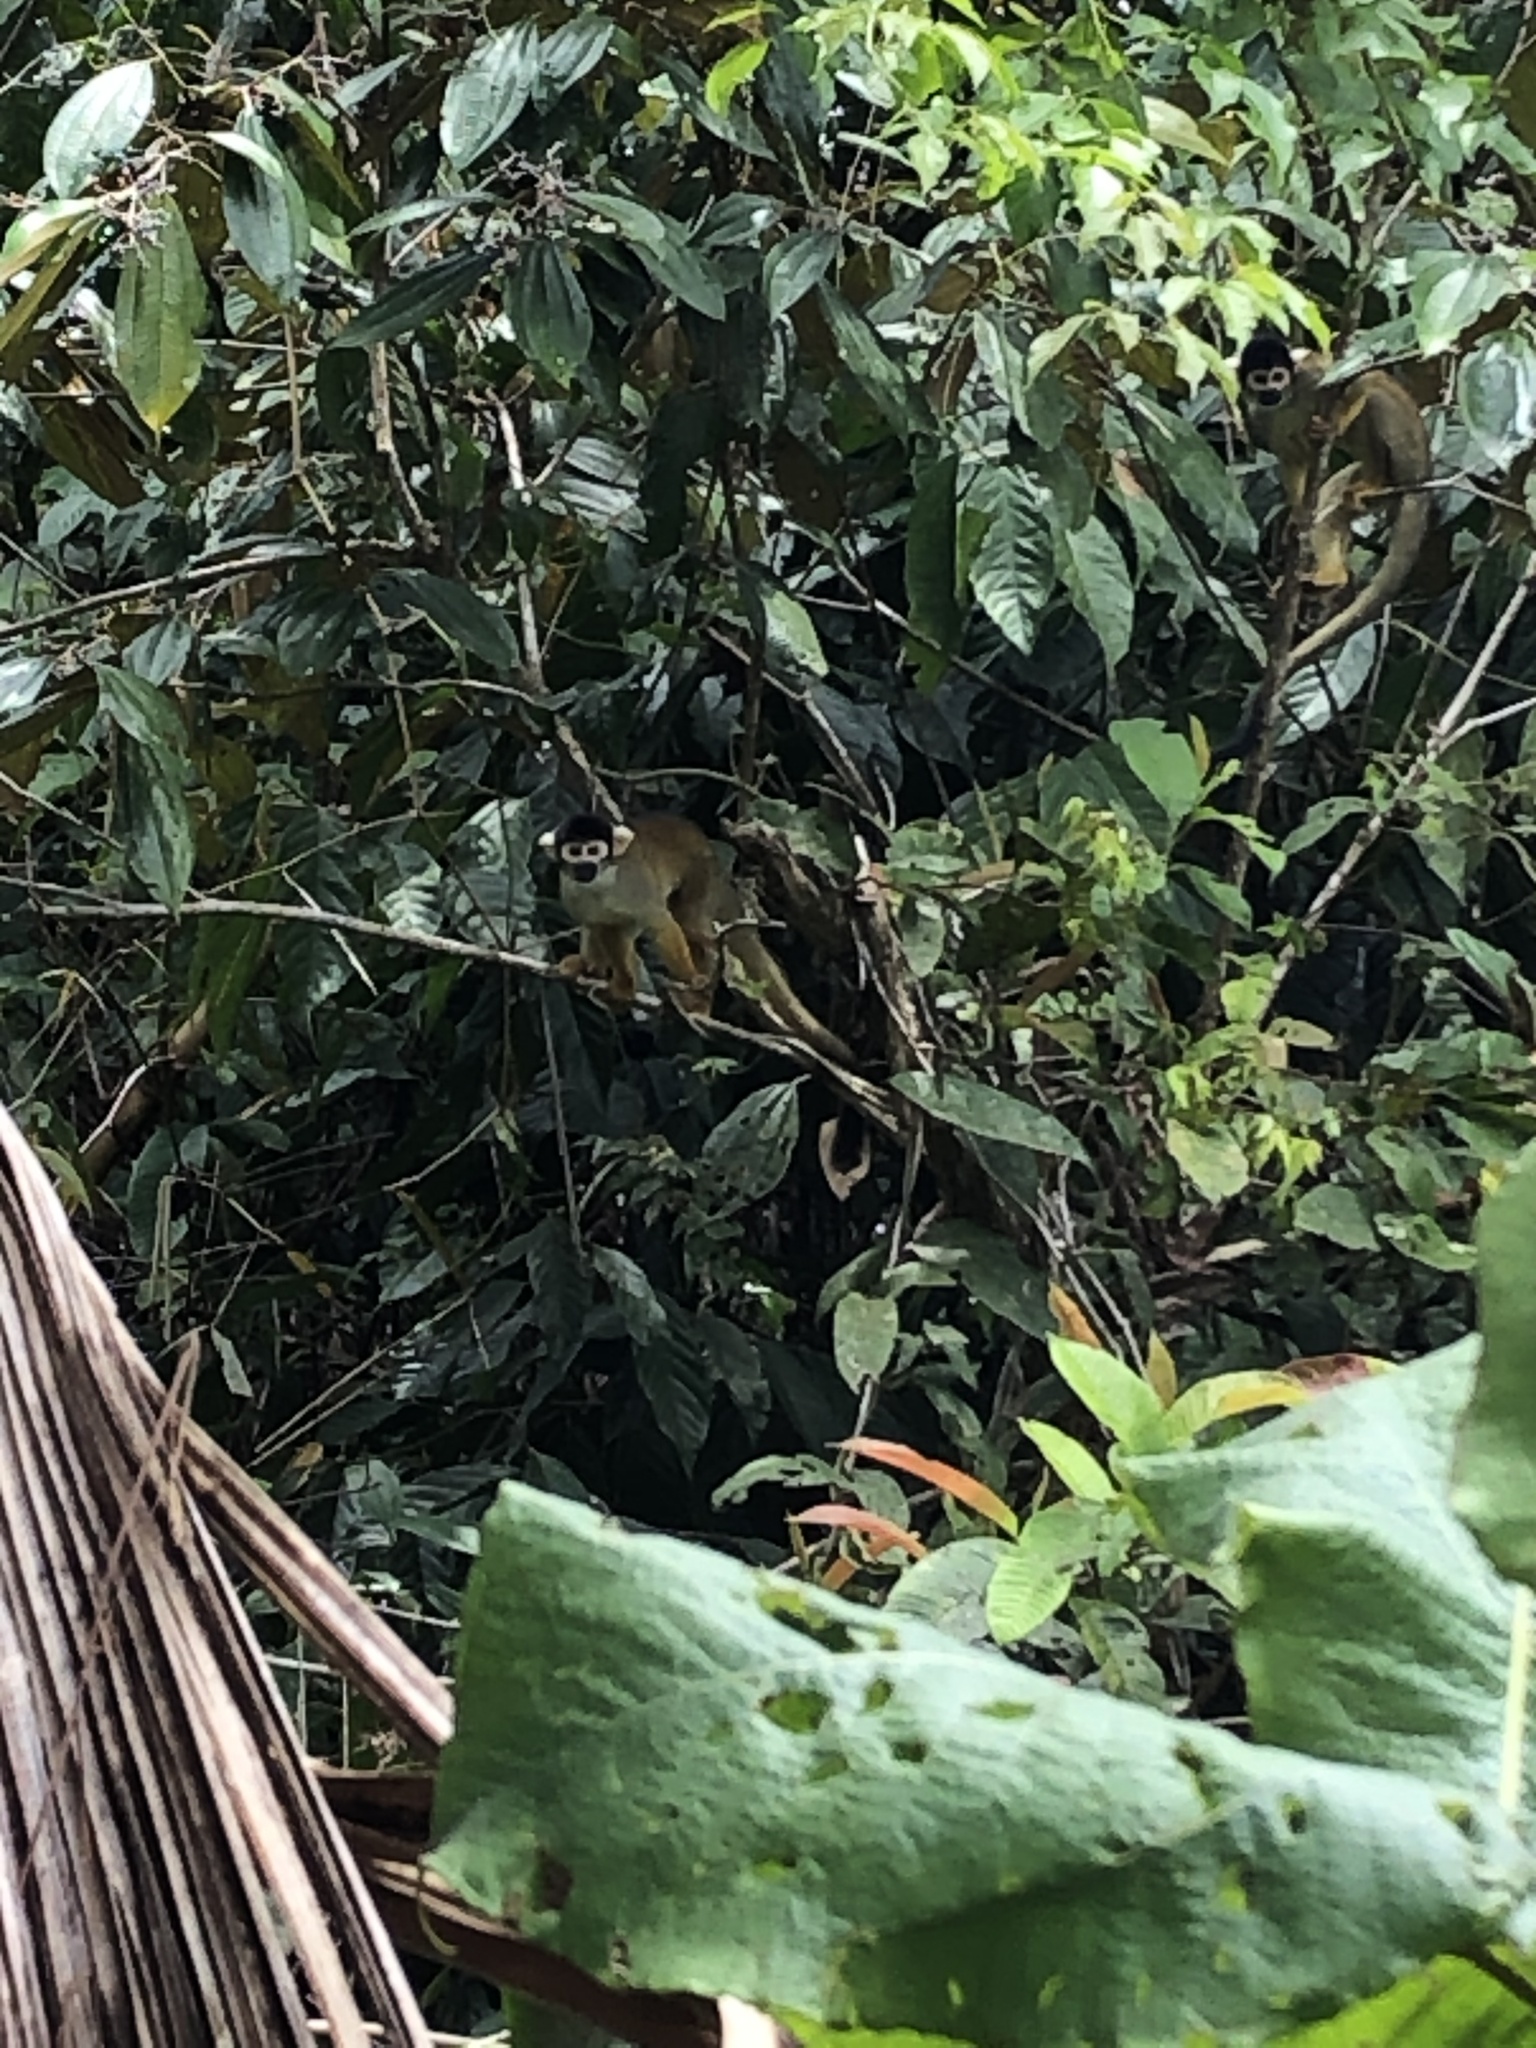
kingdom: Animalia
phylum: Chordata
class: Mammalia
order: Primates
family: Cebidae
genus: Saimiri
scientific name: Saimiri boliviensis
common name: Black-capped squirrel monkey
